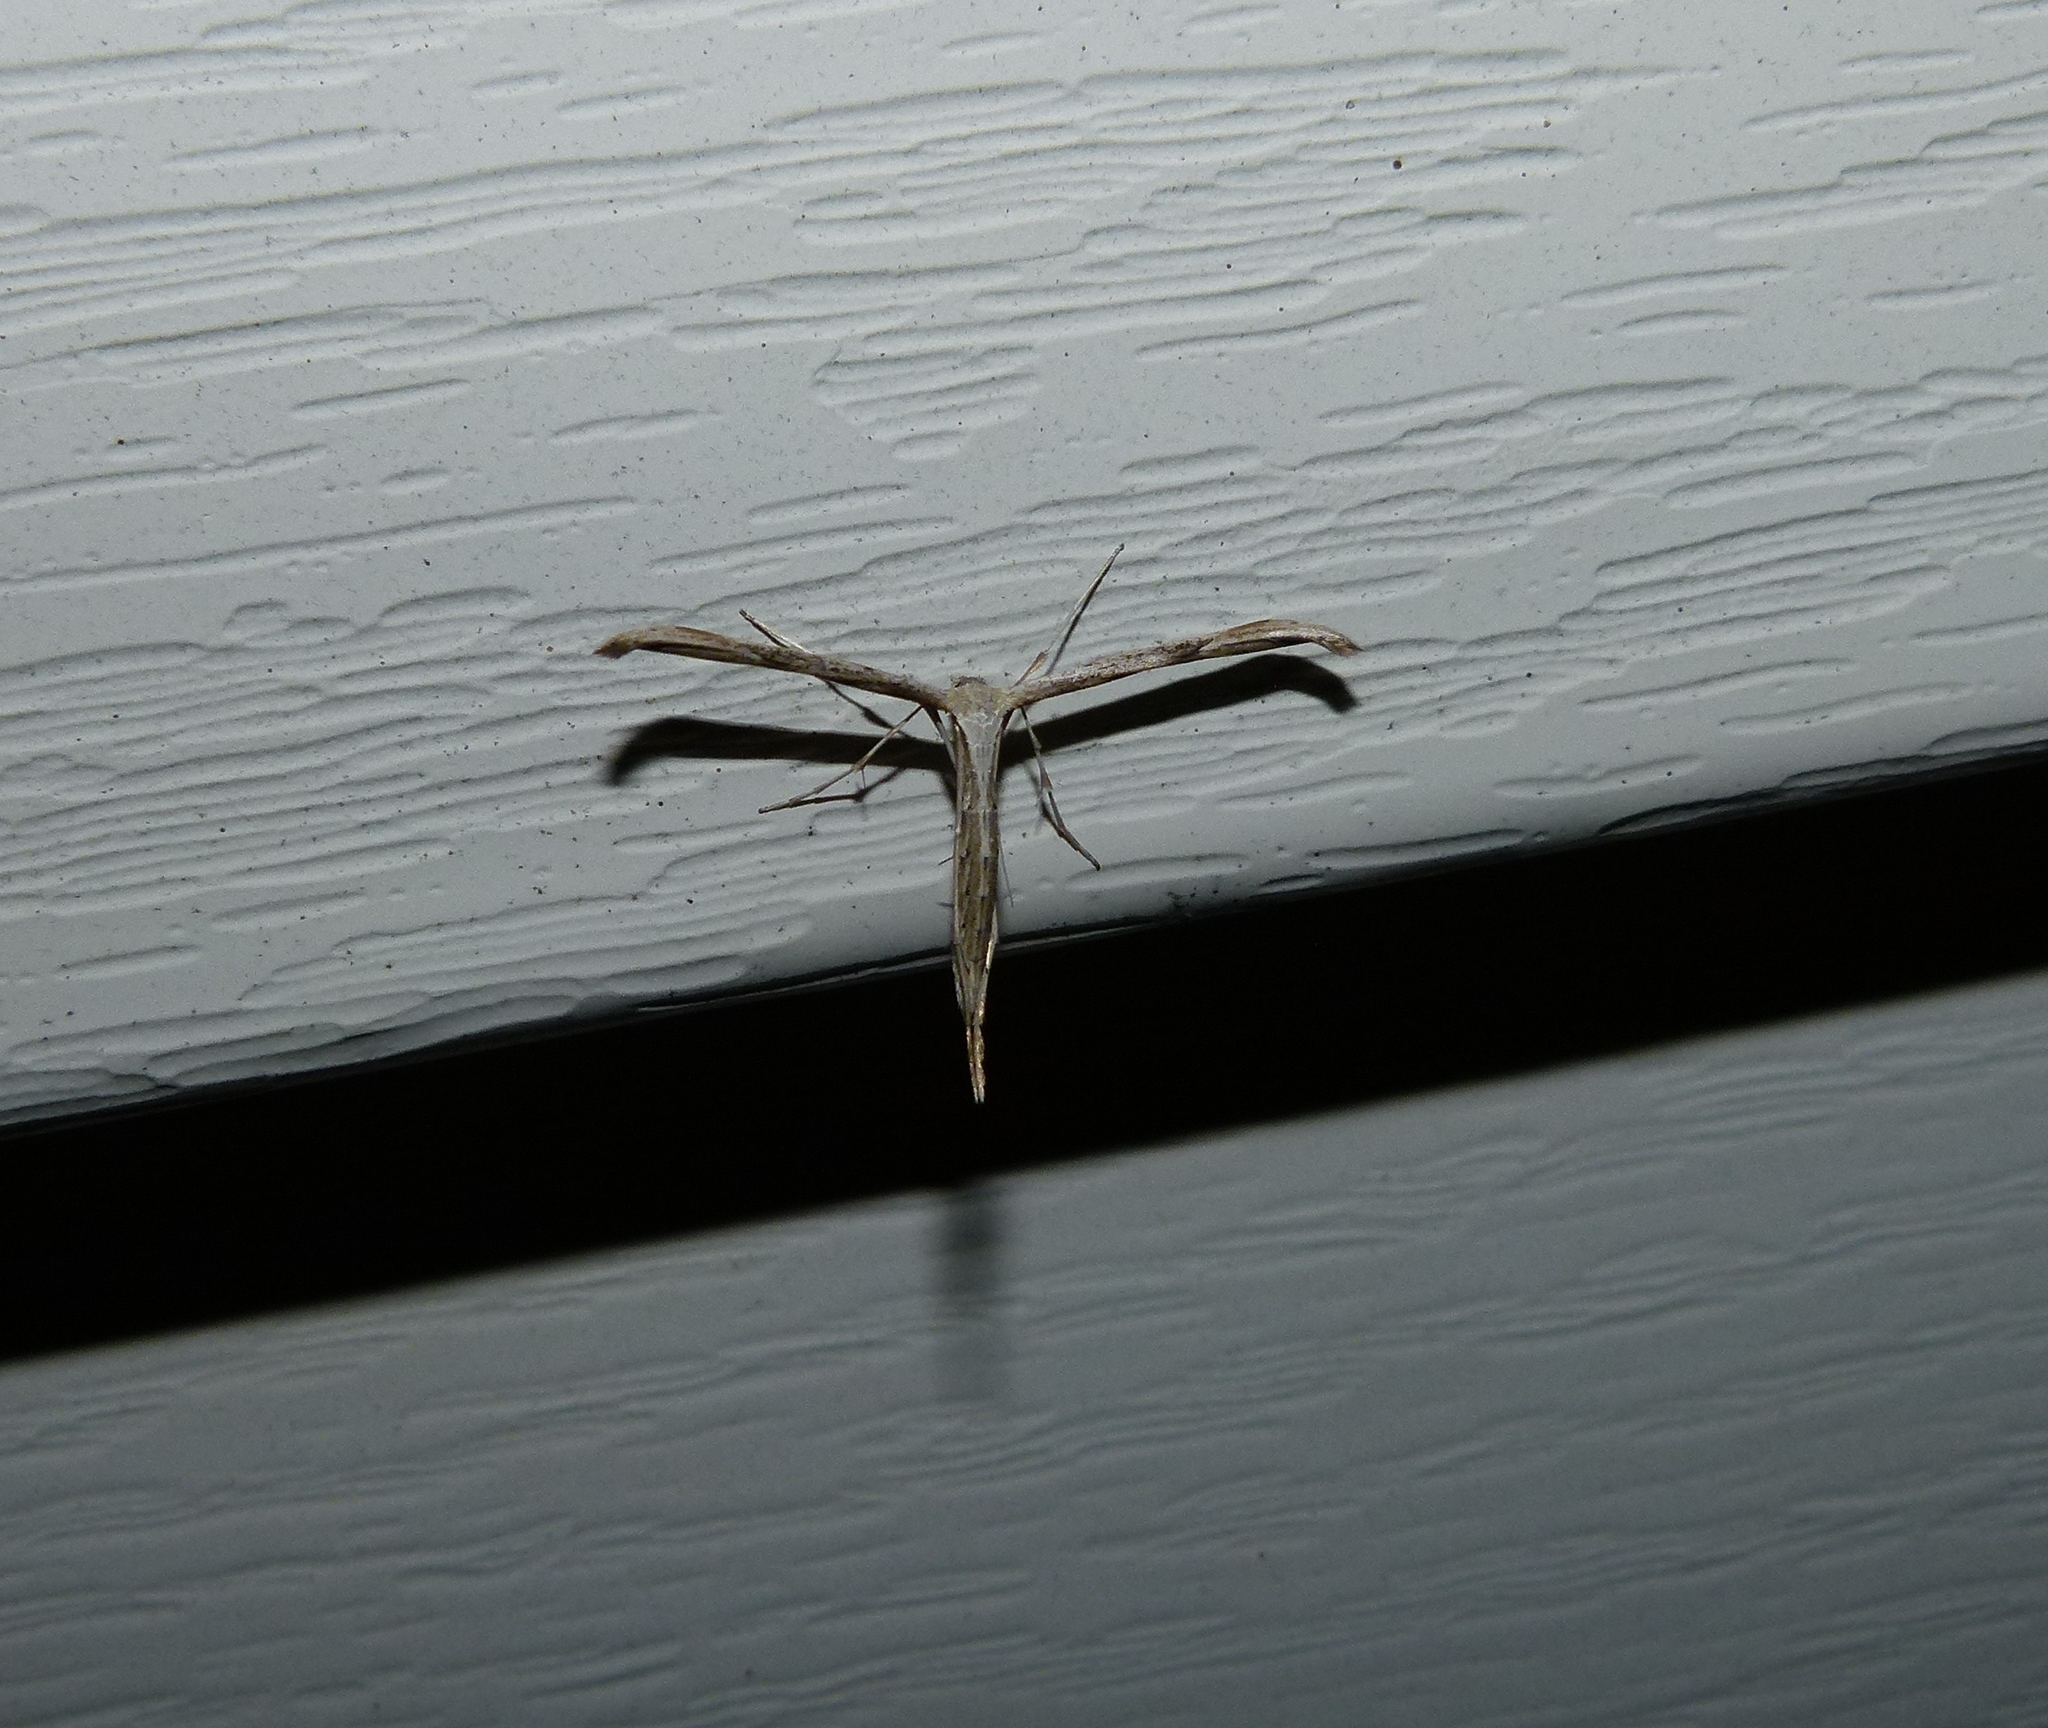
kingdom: Animalia
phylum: Arthropoda
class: Insecta
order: Lepidoptera
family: Pterophoridae
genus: Emmelina
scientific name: Emmelina monodactyla
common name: Common plume
